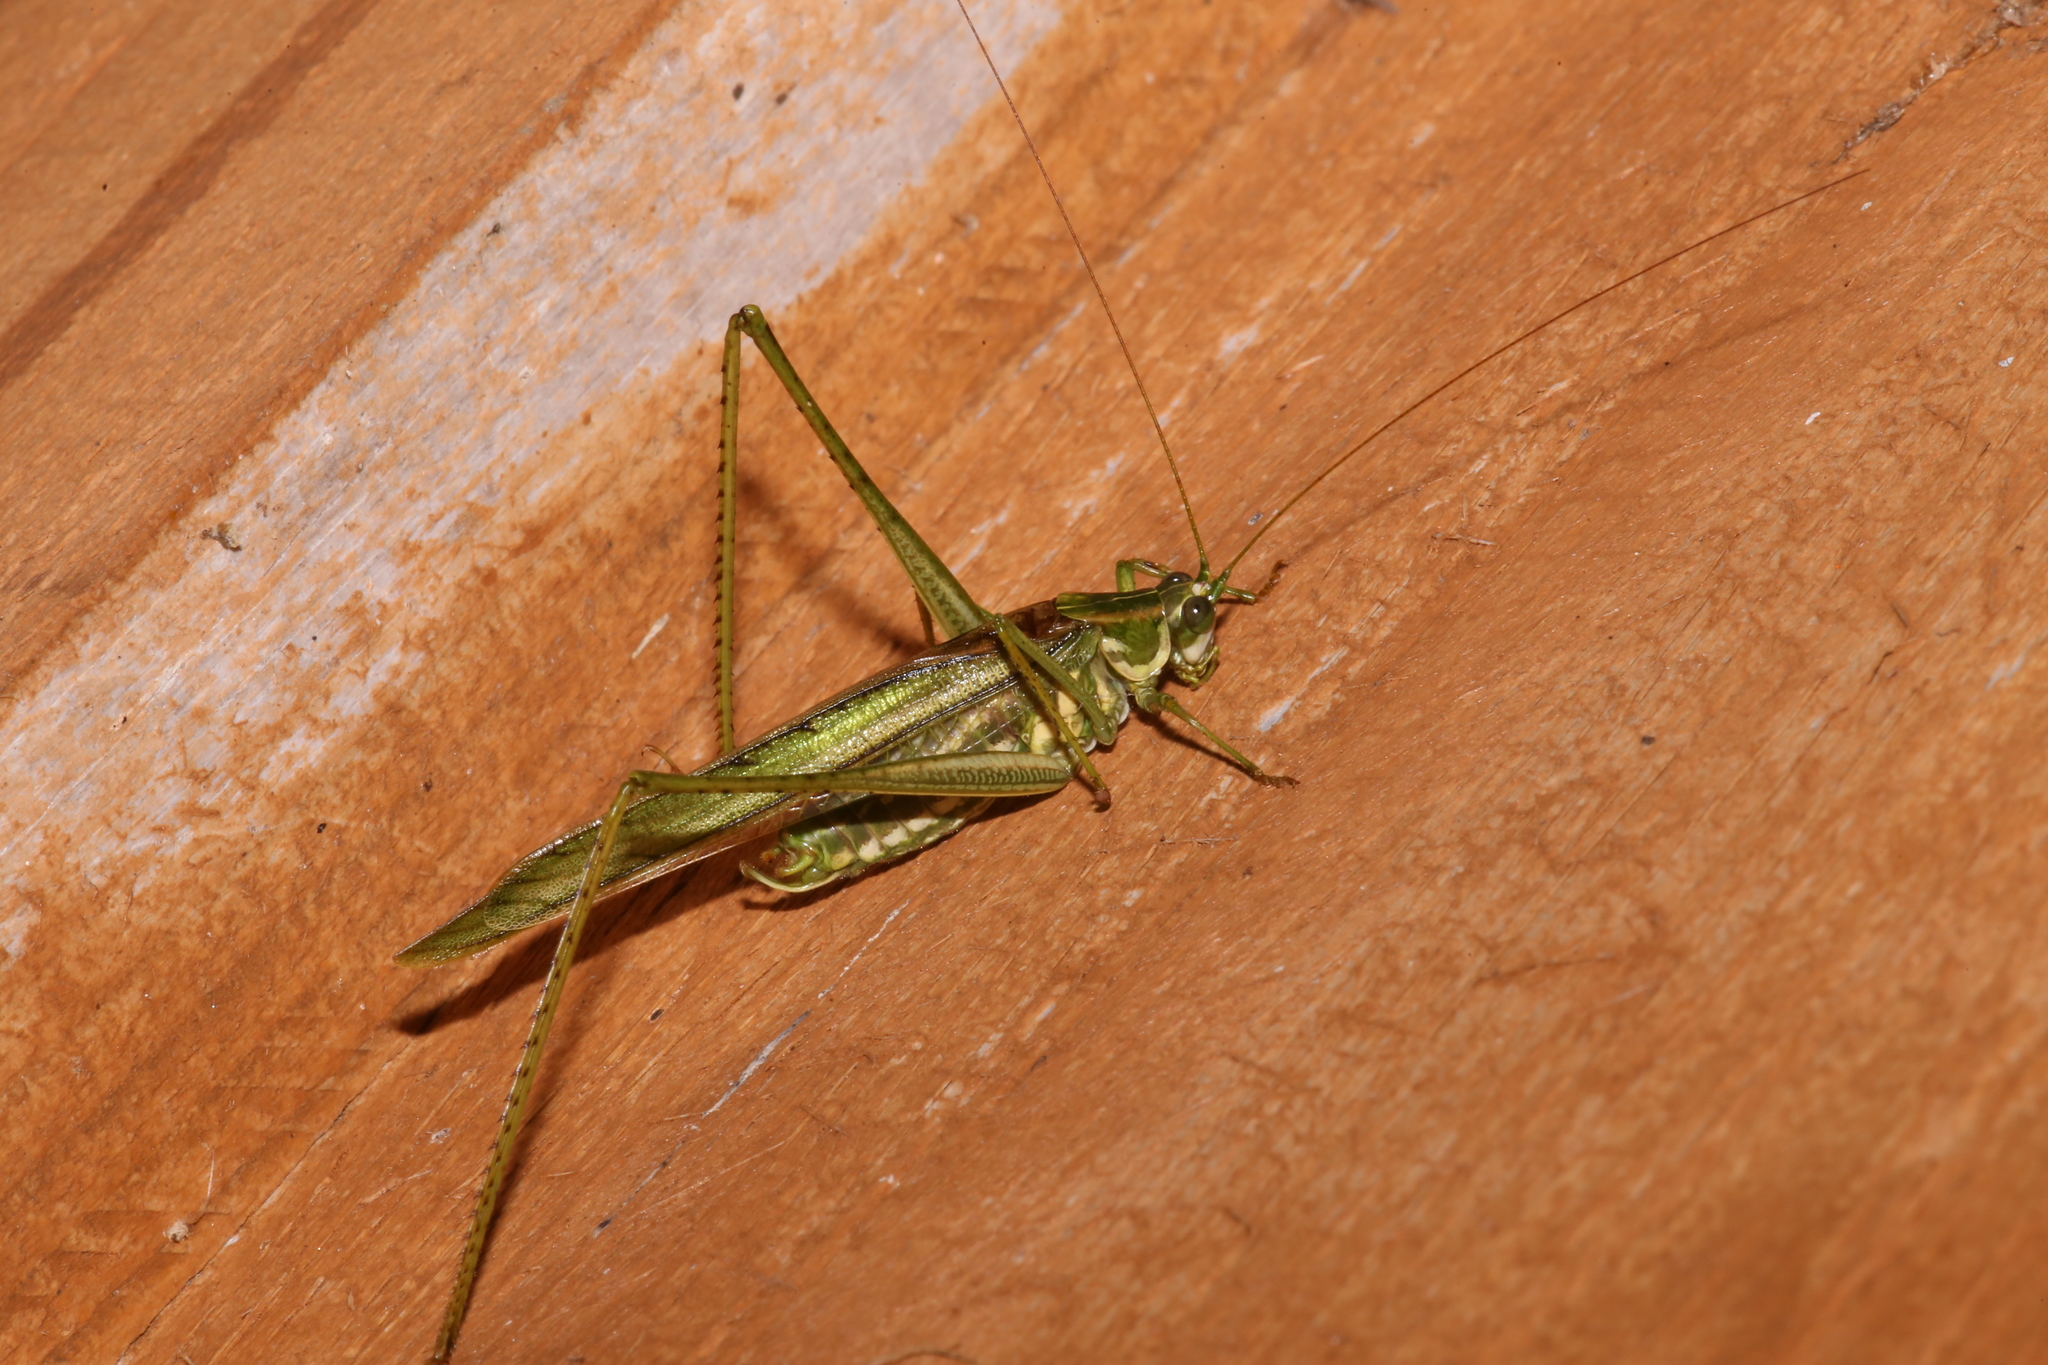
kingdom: Animalia
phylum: Arthropoda
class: Insecta
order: Orthoptera
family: Tettigoniidae
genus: Inscudderia
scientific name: Inscudderia walkeri
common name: Eastern cypress katydid
